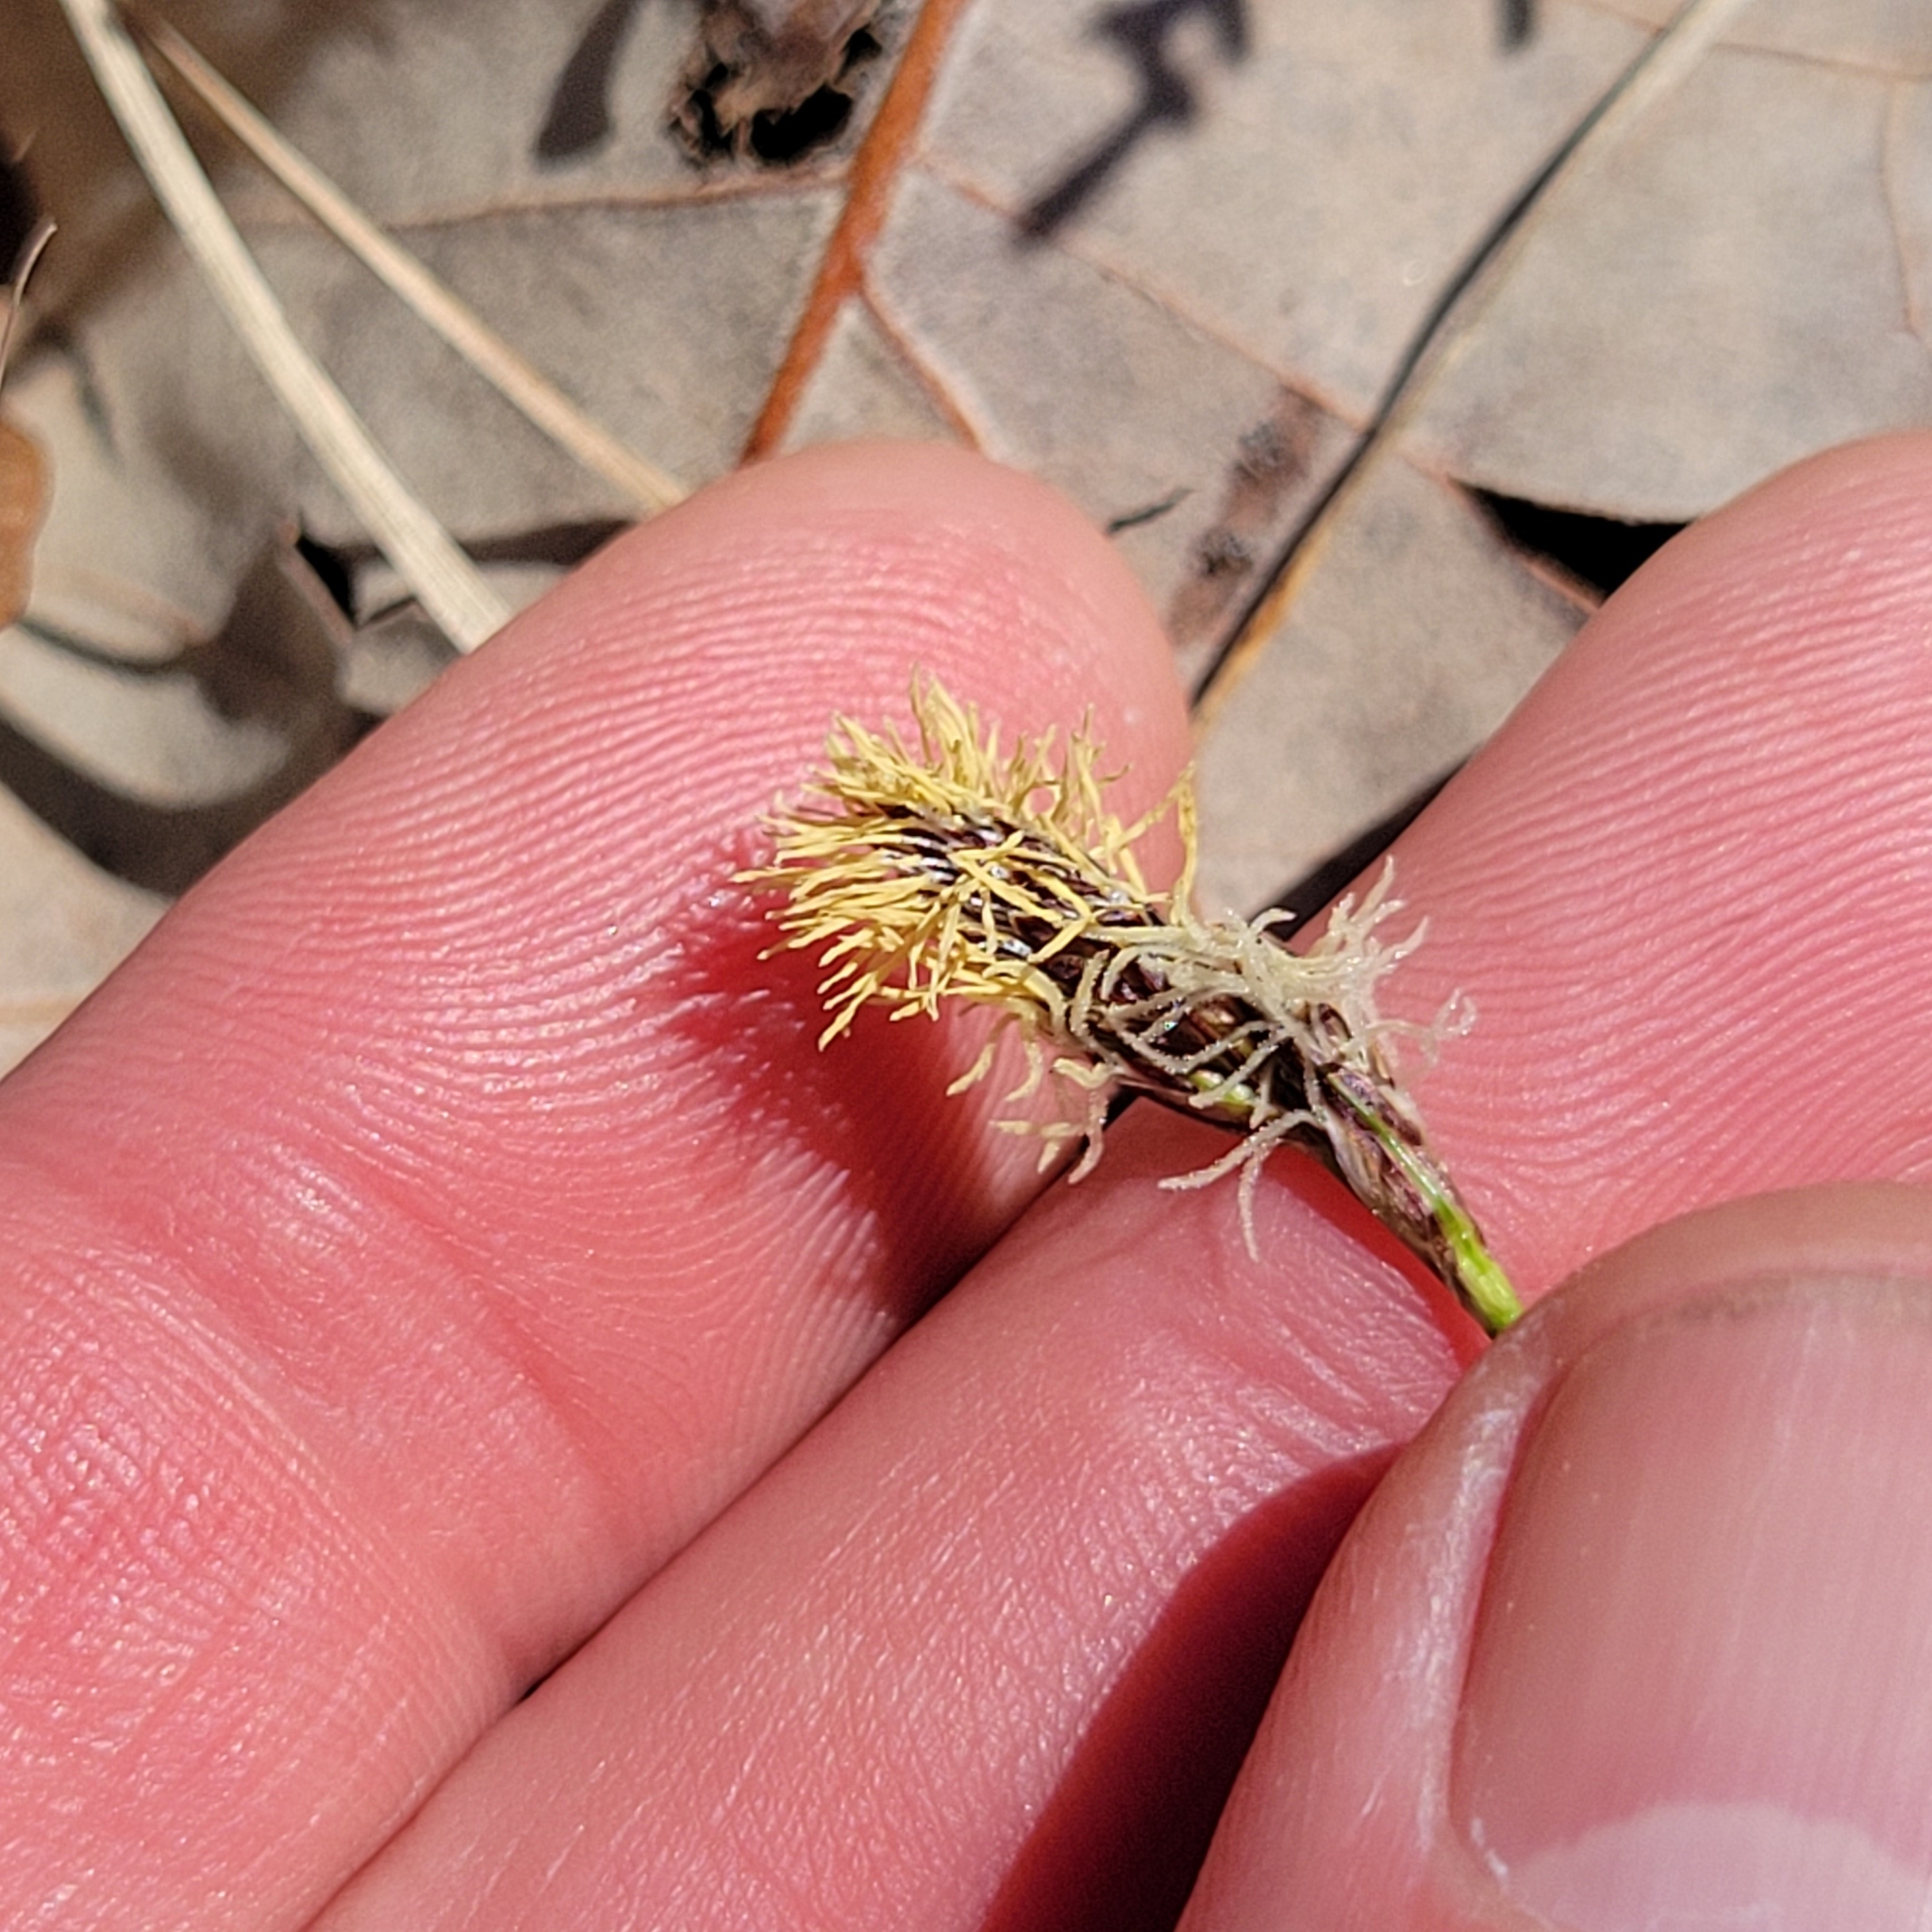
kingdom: Plantae
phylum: Tracheophyta
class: Liliopsida
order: Poales
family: Cyperaceae
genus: Carex
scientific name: Carex pensylvanica
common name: Common oak sedge
